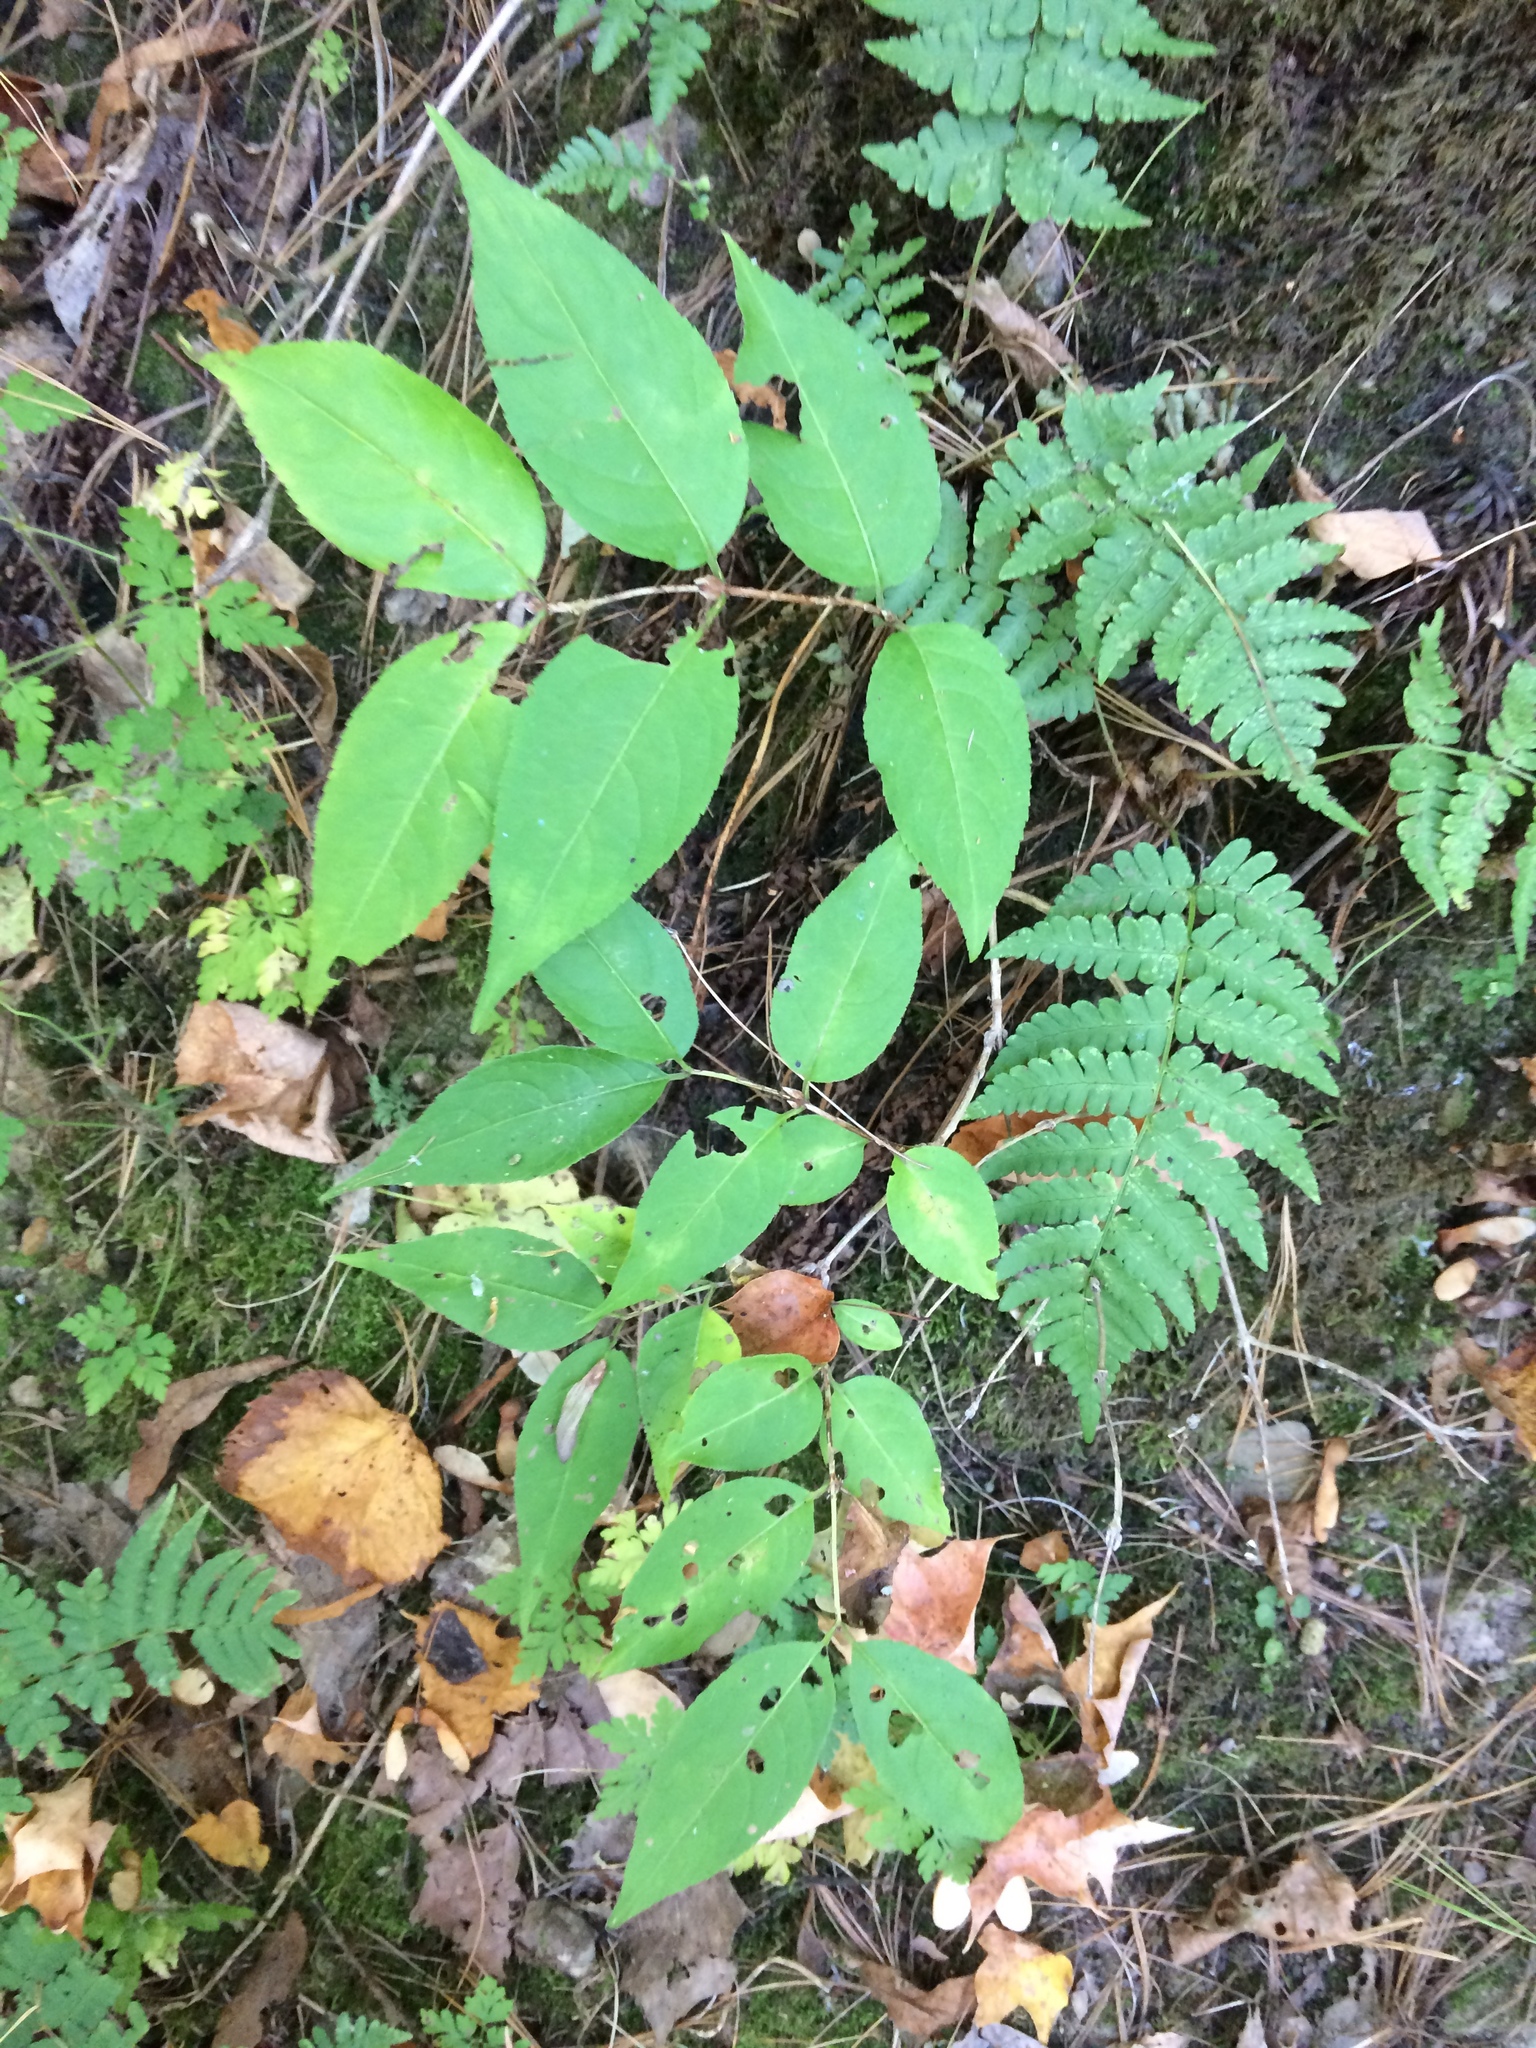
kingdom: Plantae
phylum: Tracheophyta
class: Magnoliopsida
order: Dipsacales
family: Caprifoliaceae
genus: Diervilla
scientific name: Diervilla lonicera
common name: Bush-honeysuckle
